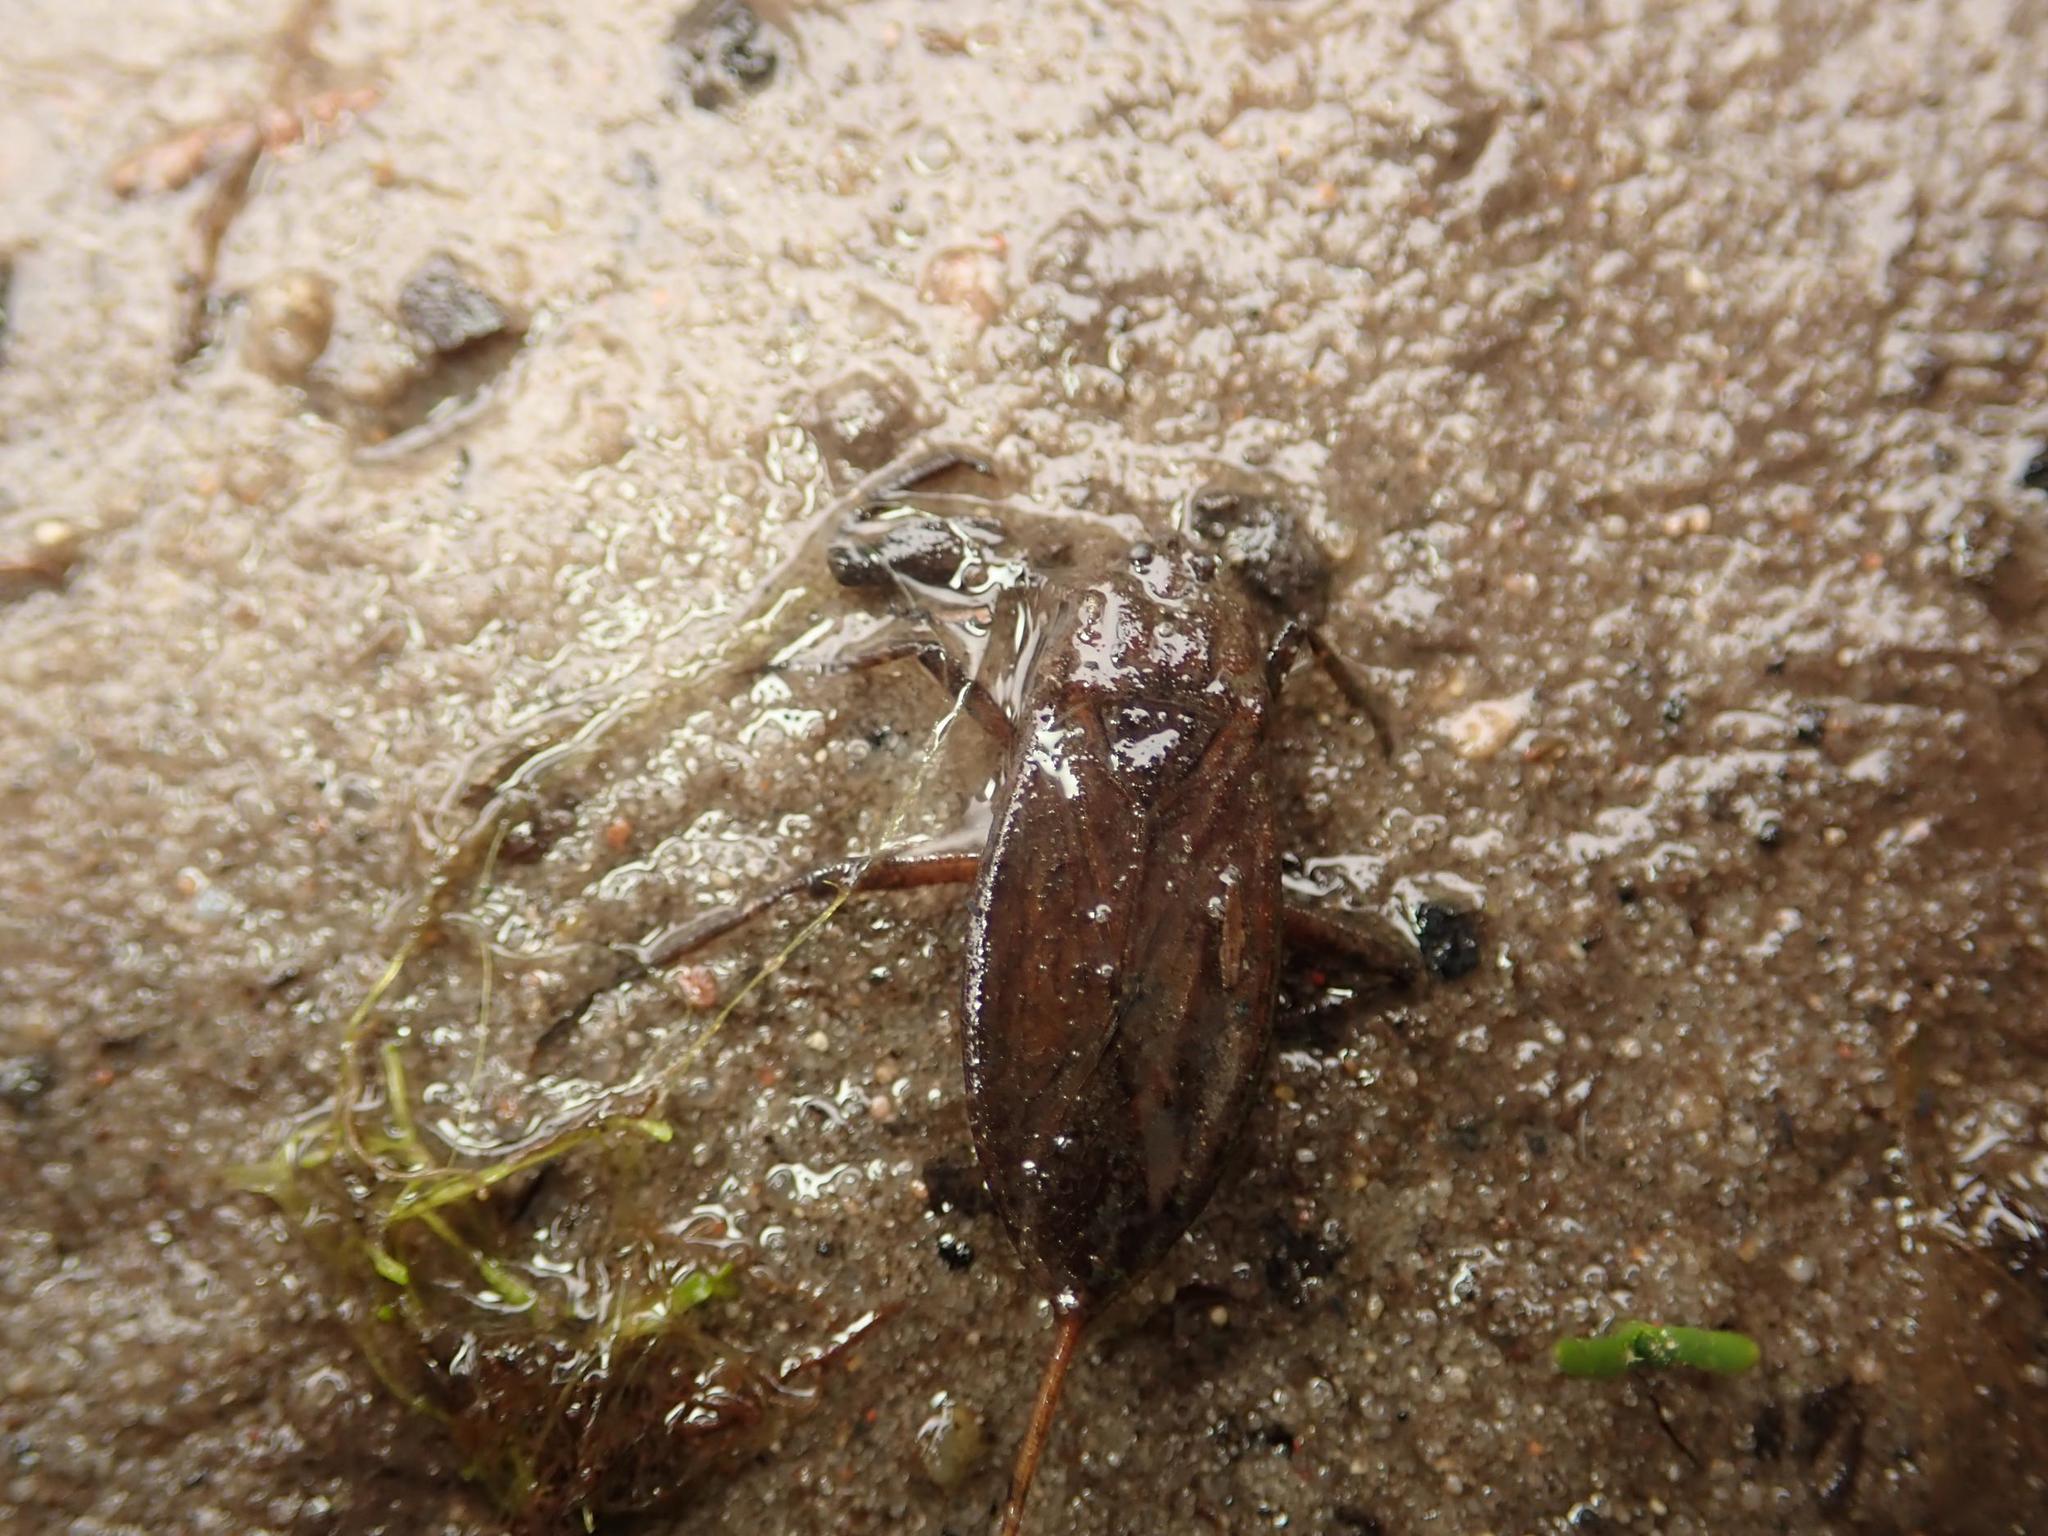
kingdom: Animalia
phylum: Arthropoda
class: Insecta
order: Hemiptera
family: Nepidae
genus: Nepa
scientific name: Nepa cinerea
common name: Water scorpion
